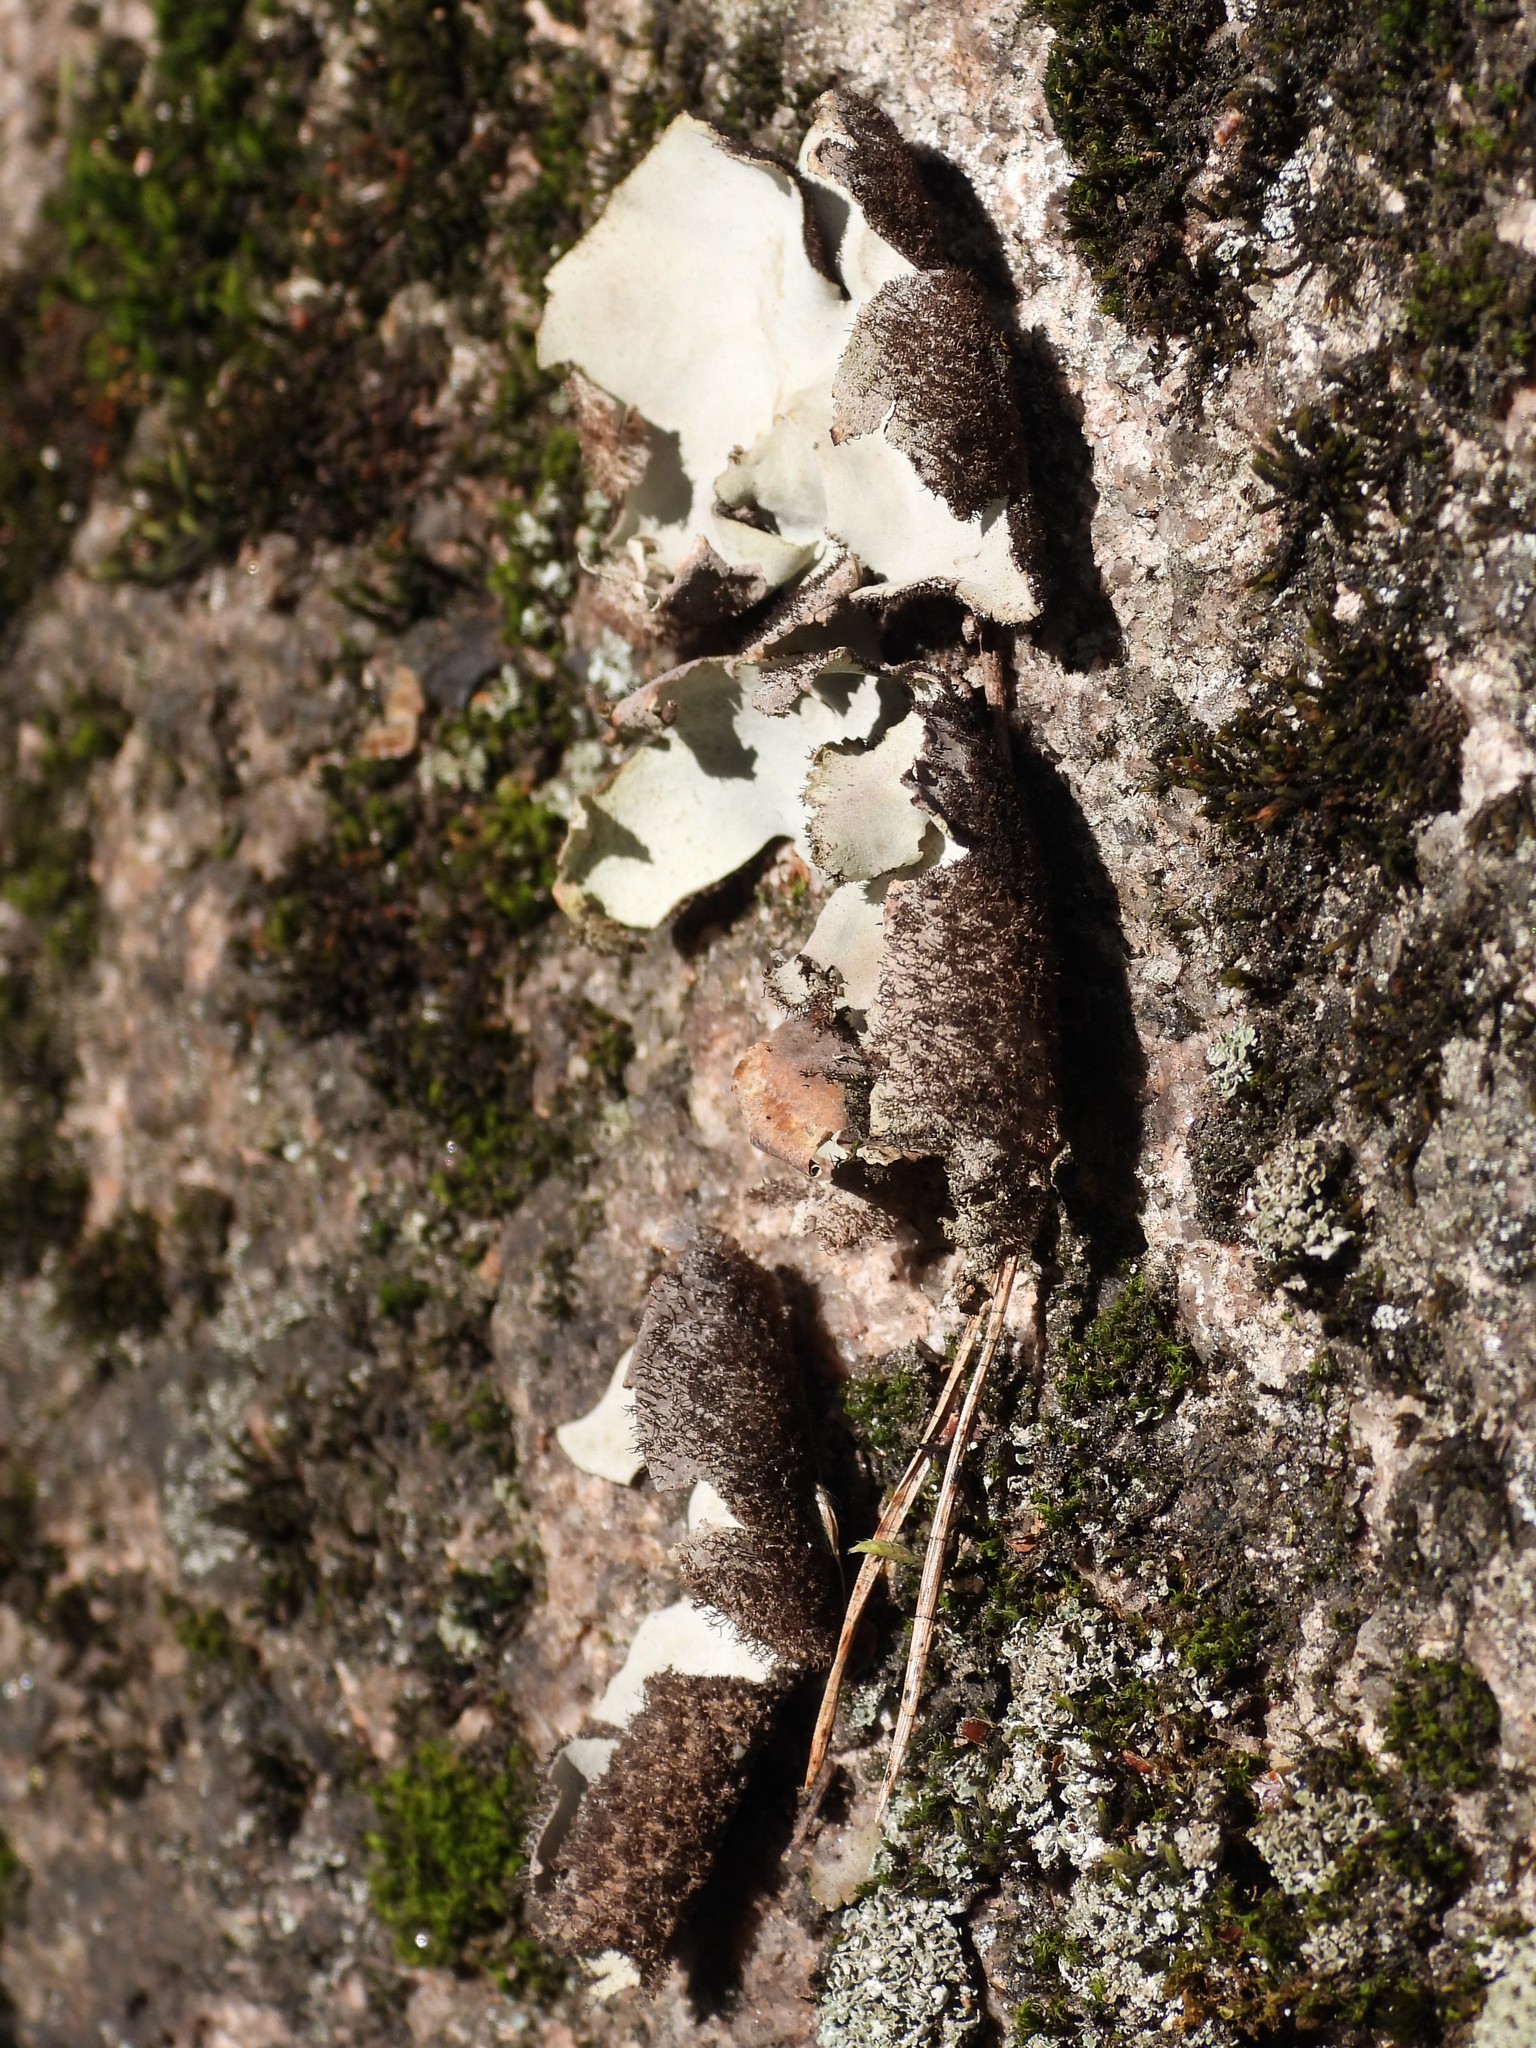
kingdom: Fungi
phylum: Ascomycota
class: Lecanoromycetes
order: Umbilicariales
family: Umbilicariaceae
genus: Umbilicaria
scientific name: Umbilicaria hirsuta
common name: Granulating rocktripe lichen
